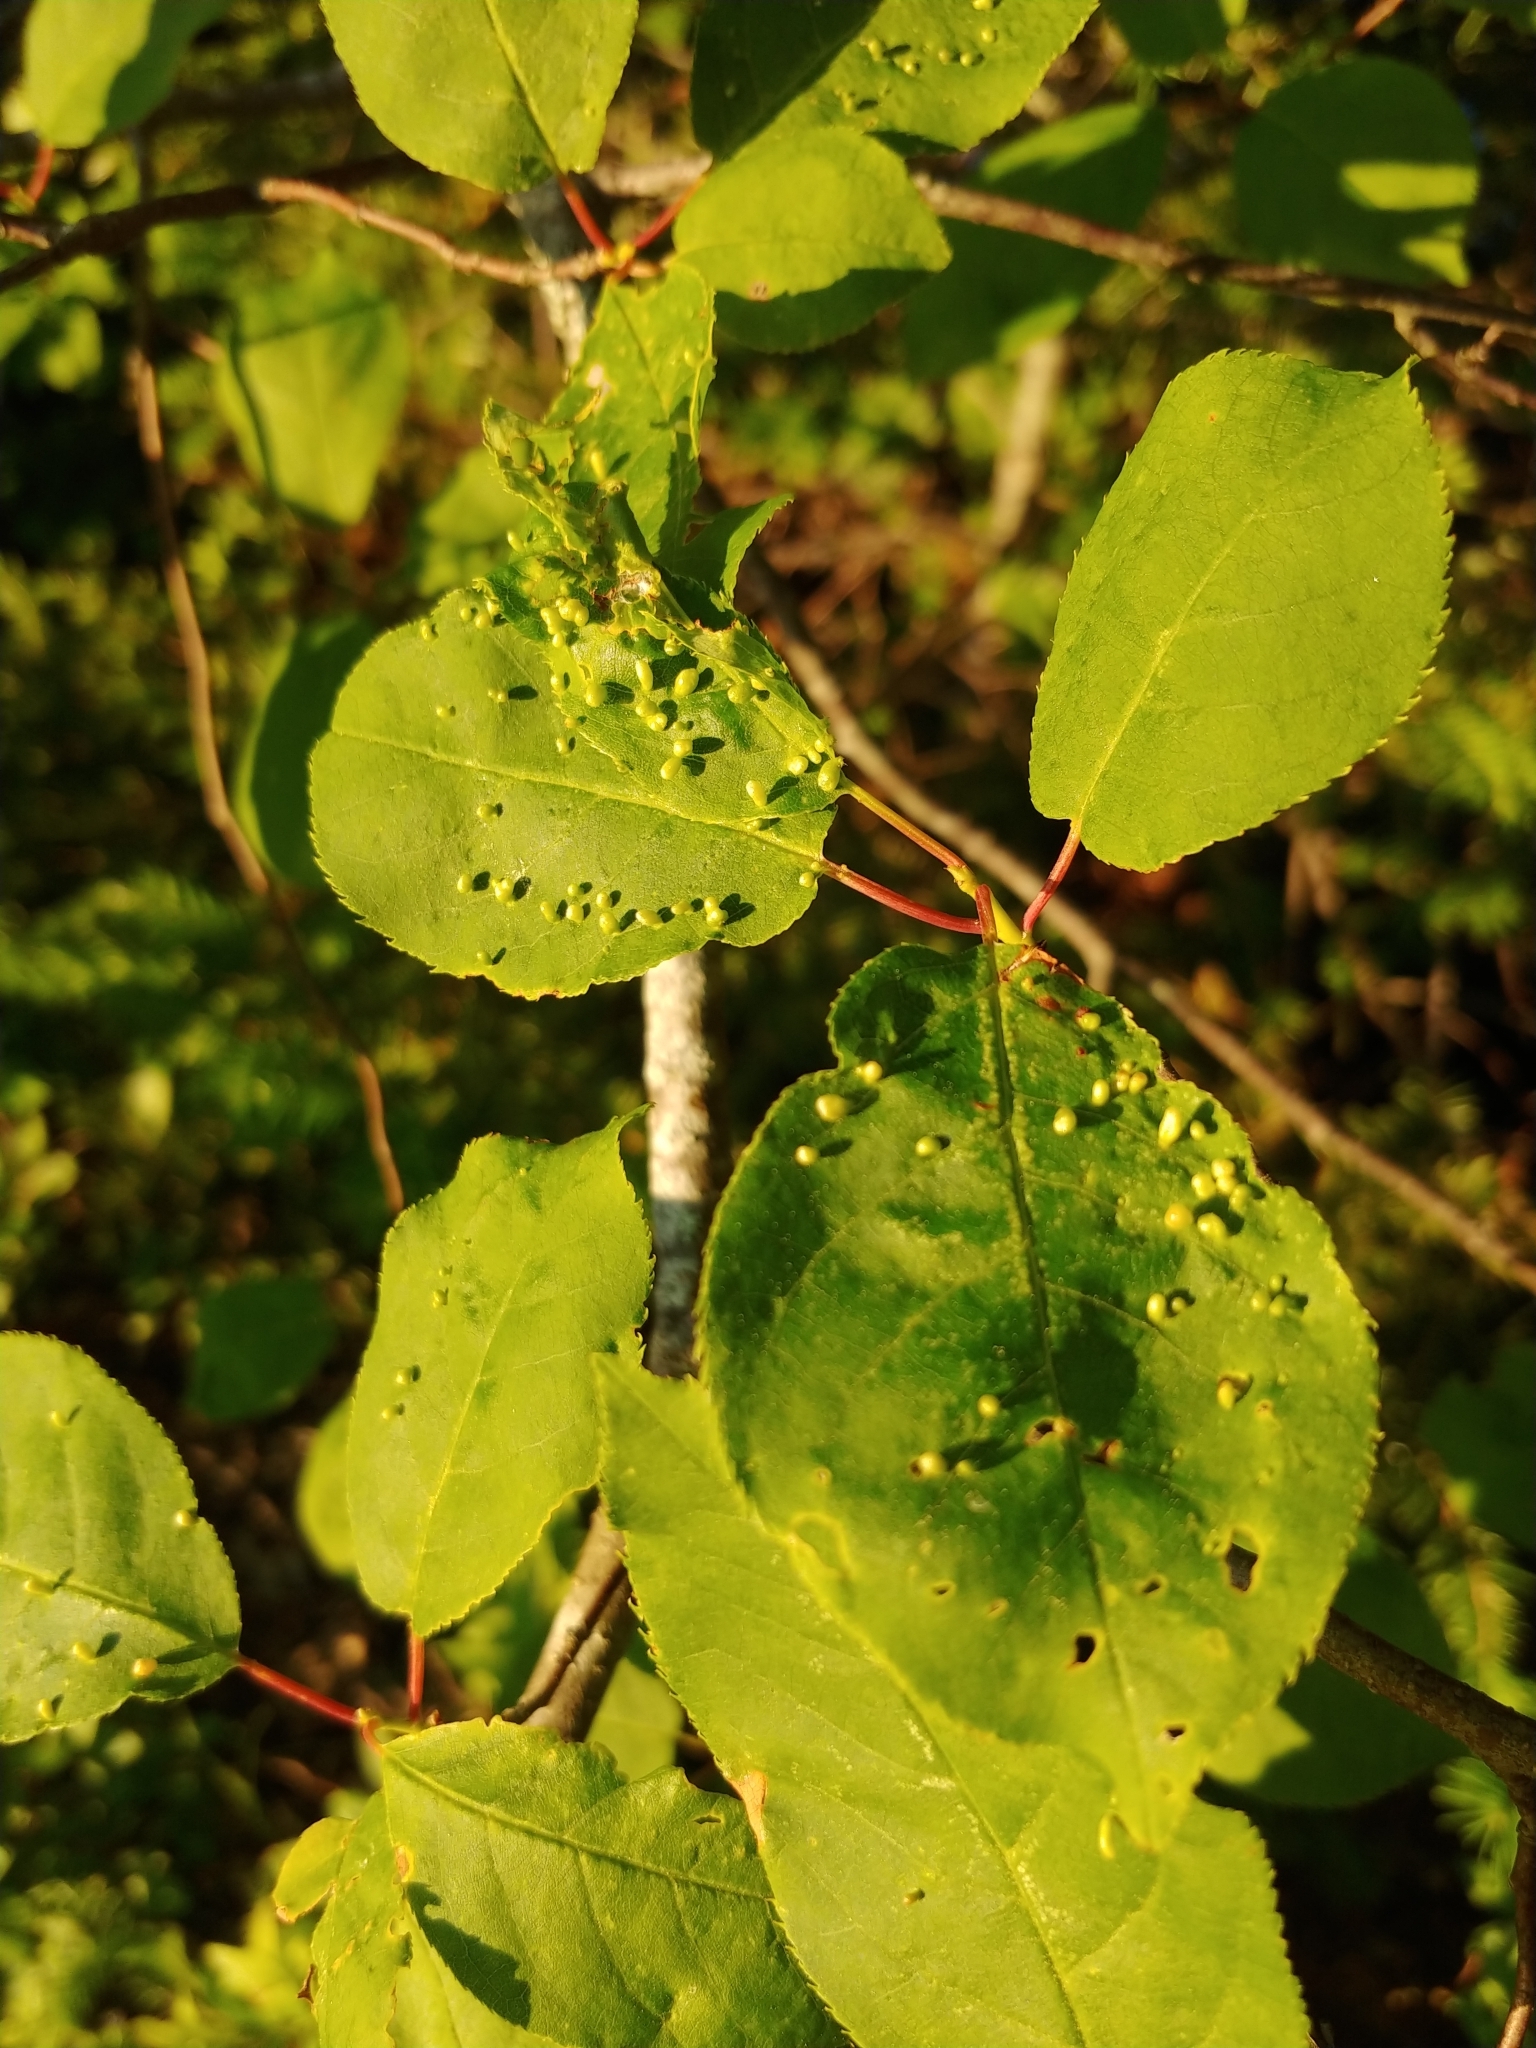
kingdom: Animalia
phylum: Arthropoda
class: Arachnida
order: Trombidiformes
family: Eriophyidae
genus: Eriophyes
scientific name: Eriophyes emarginatae
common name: Plum leaf gall mite
